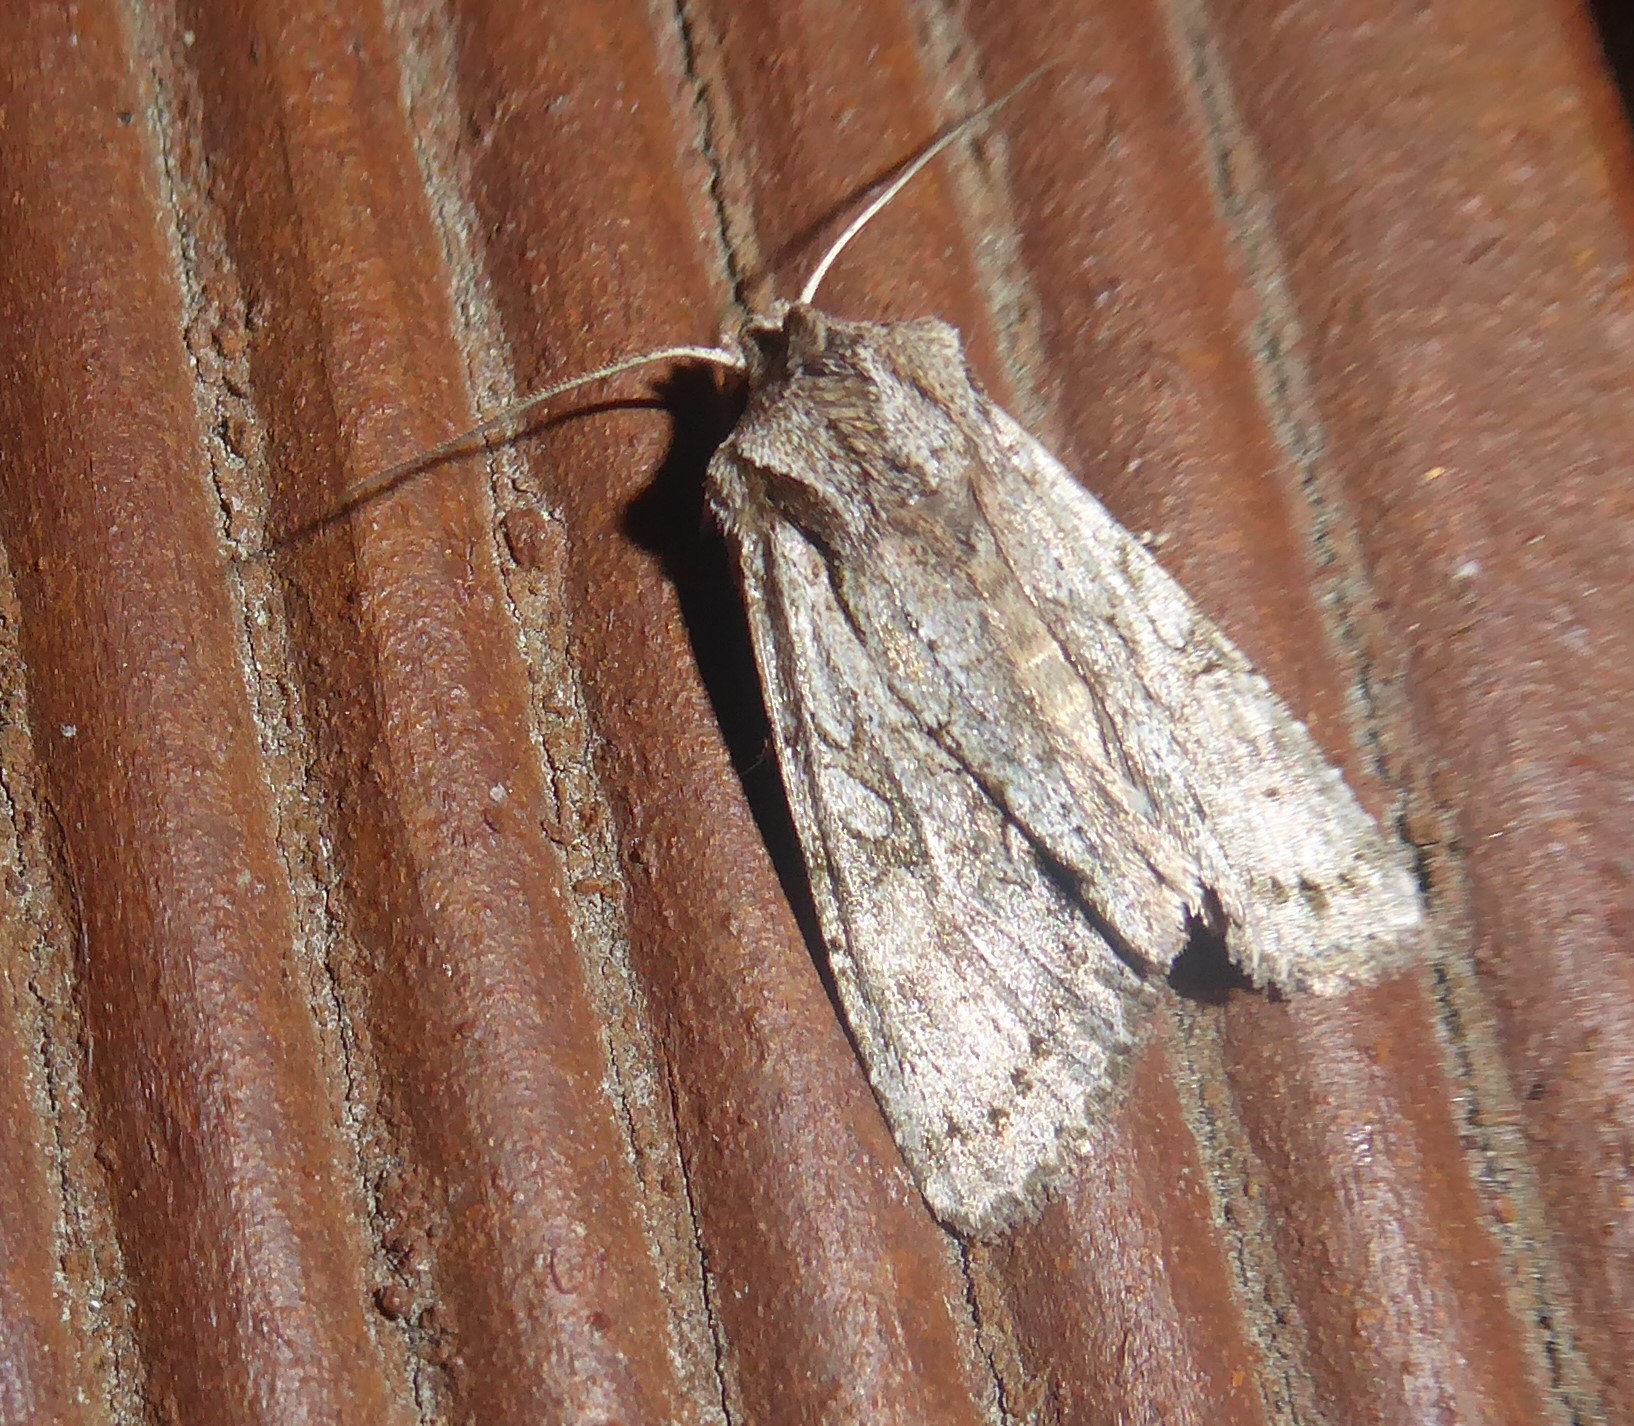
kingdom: Animalia
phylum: Arthropoda
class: Insecta
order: Lepidoptera
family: Noctuidae
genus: Ichneutica
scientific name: Ichneutica mutans
